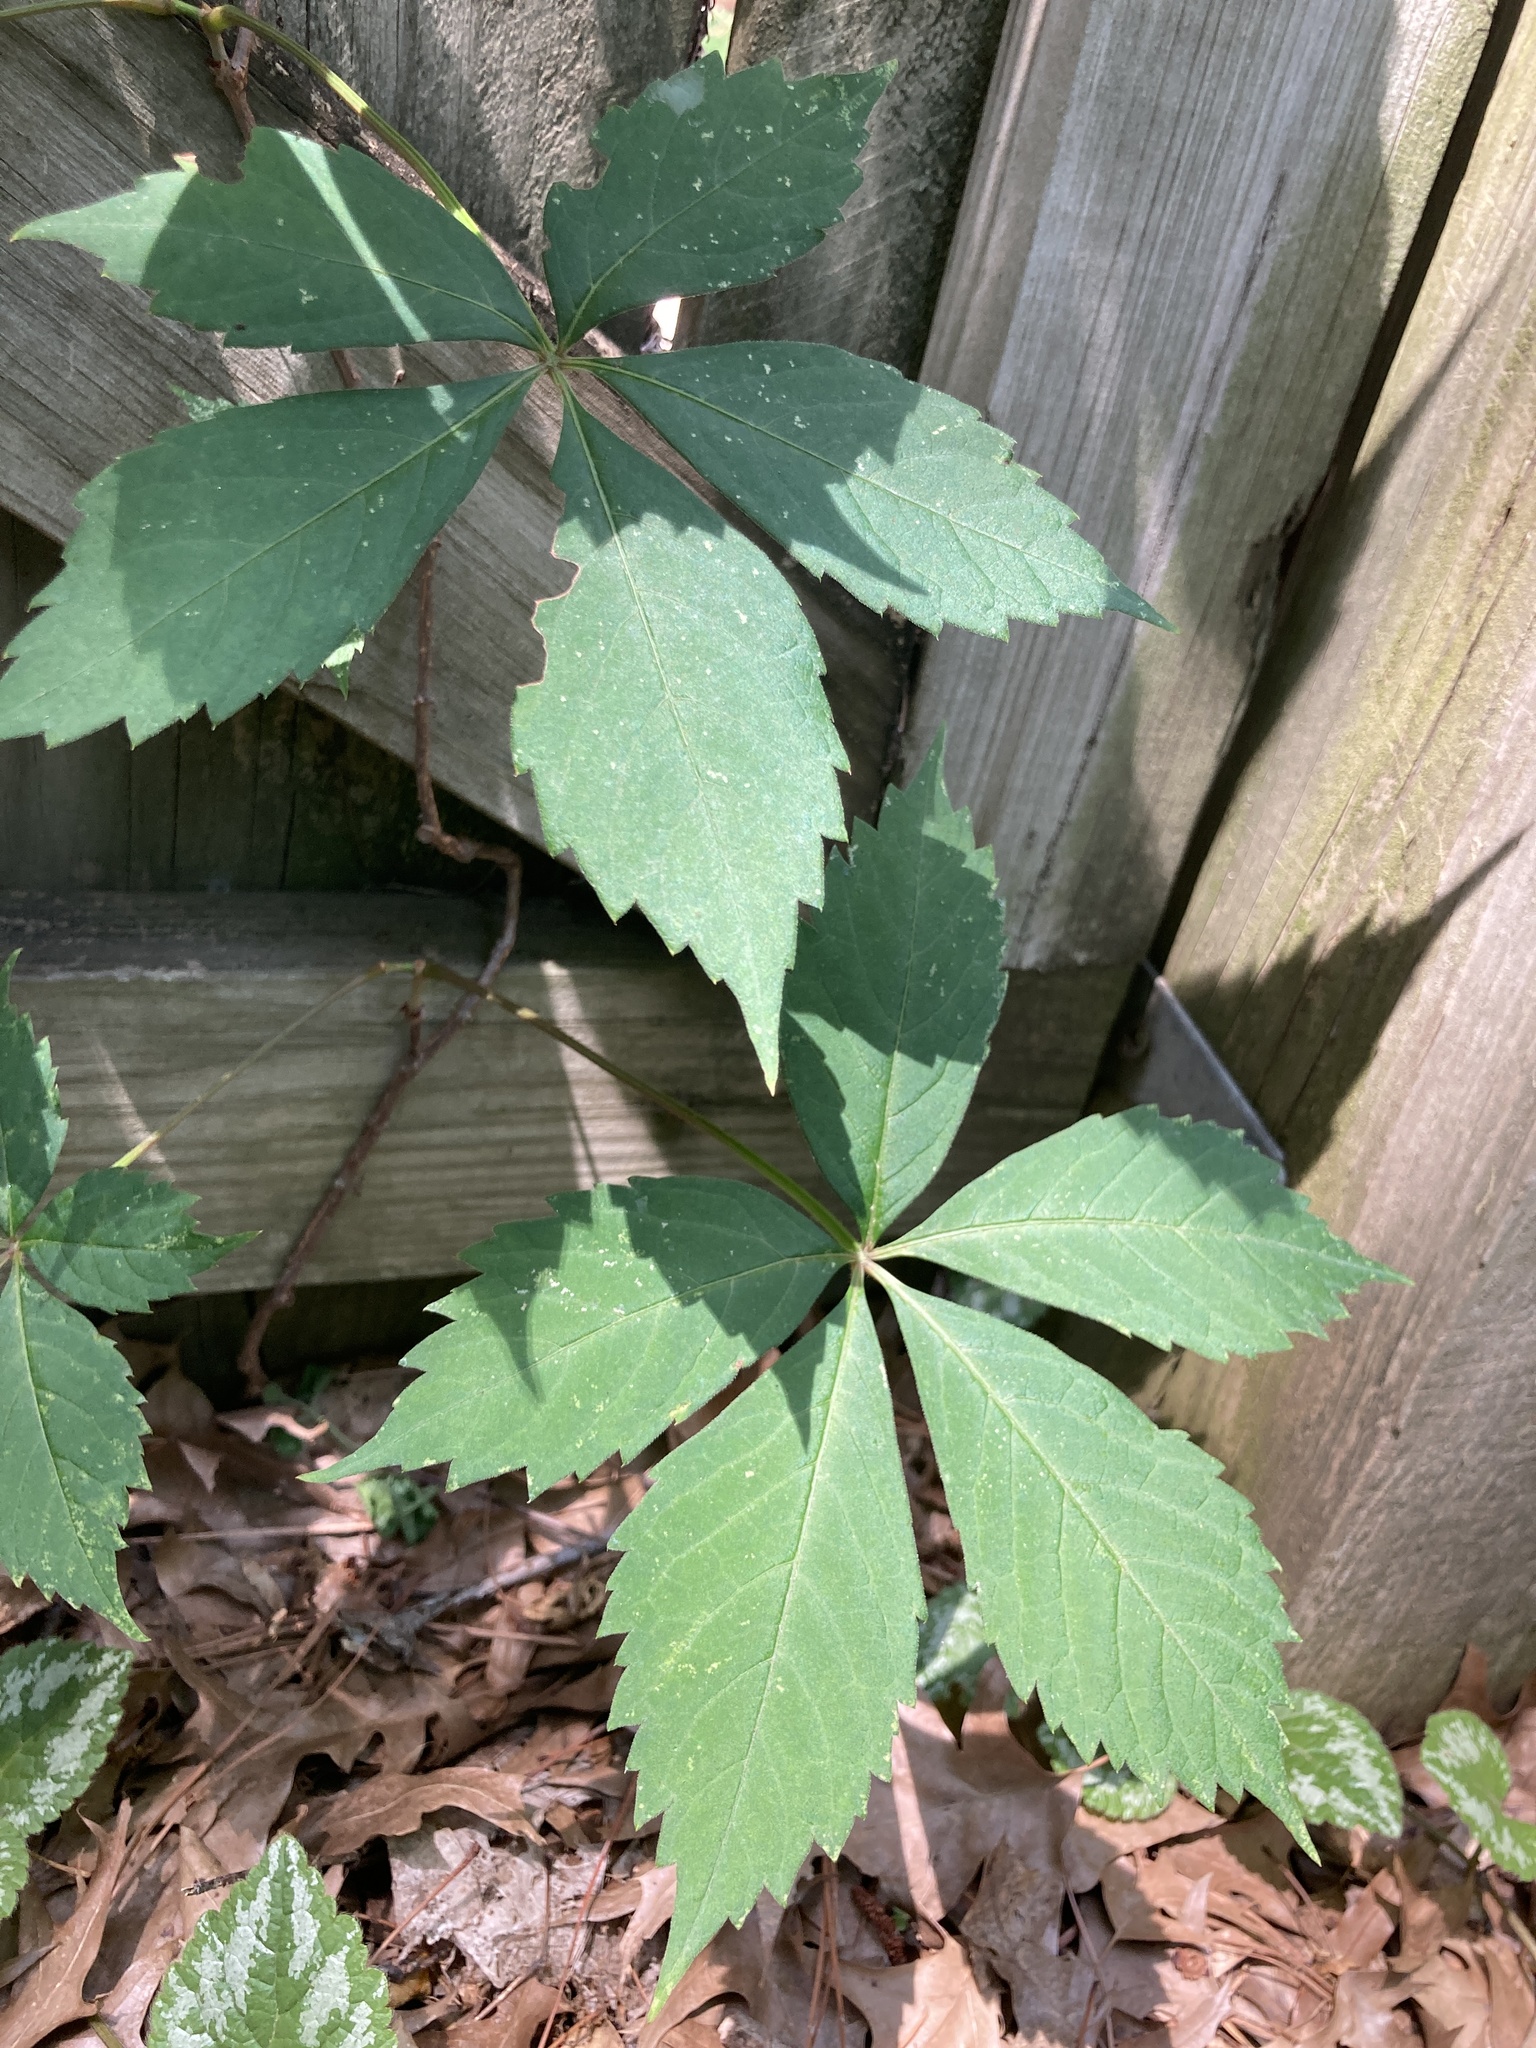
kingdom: Plantae
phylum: Tracheophyta
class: Magnoliopsida
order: Vitales
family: Vitaceae
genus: Parthenocissus
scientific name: Parthenocissus quinquefolia
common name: Virginia-creeper
